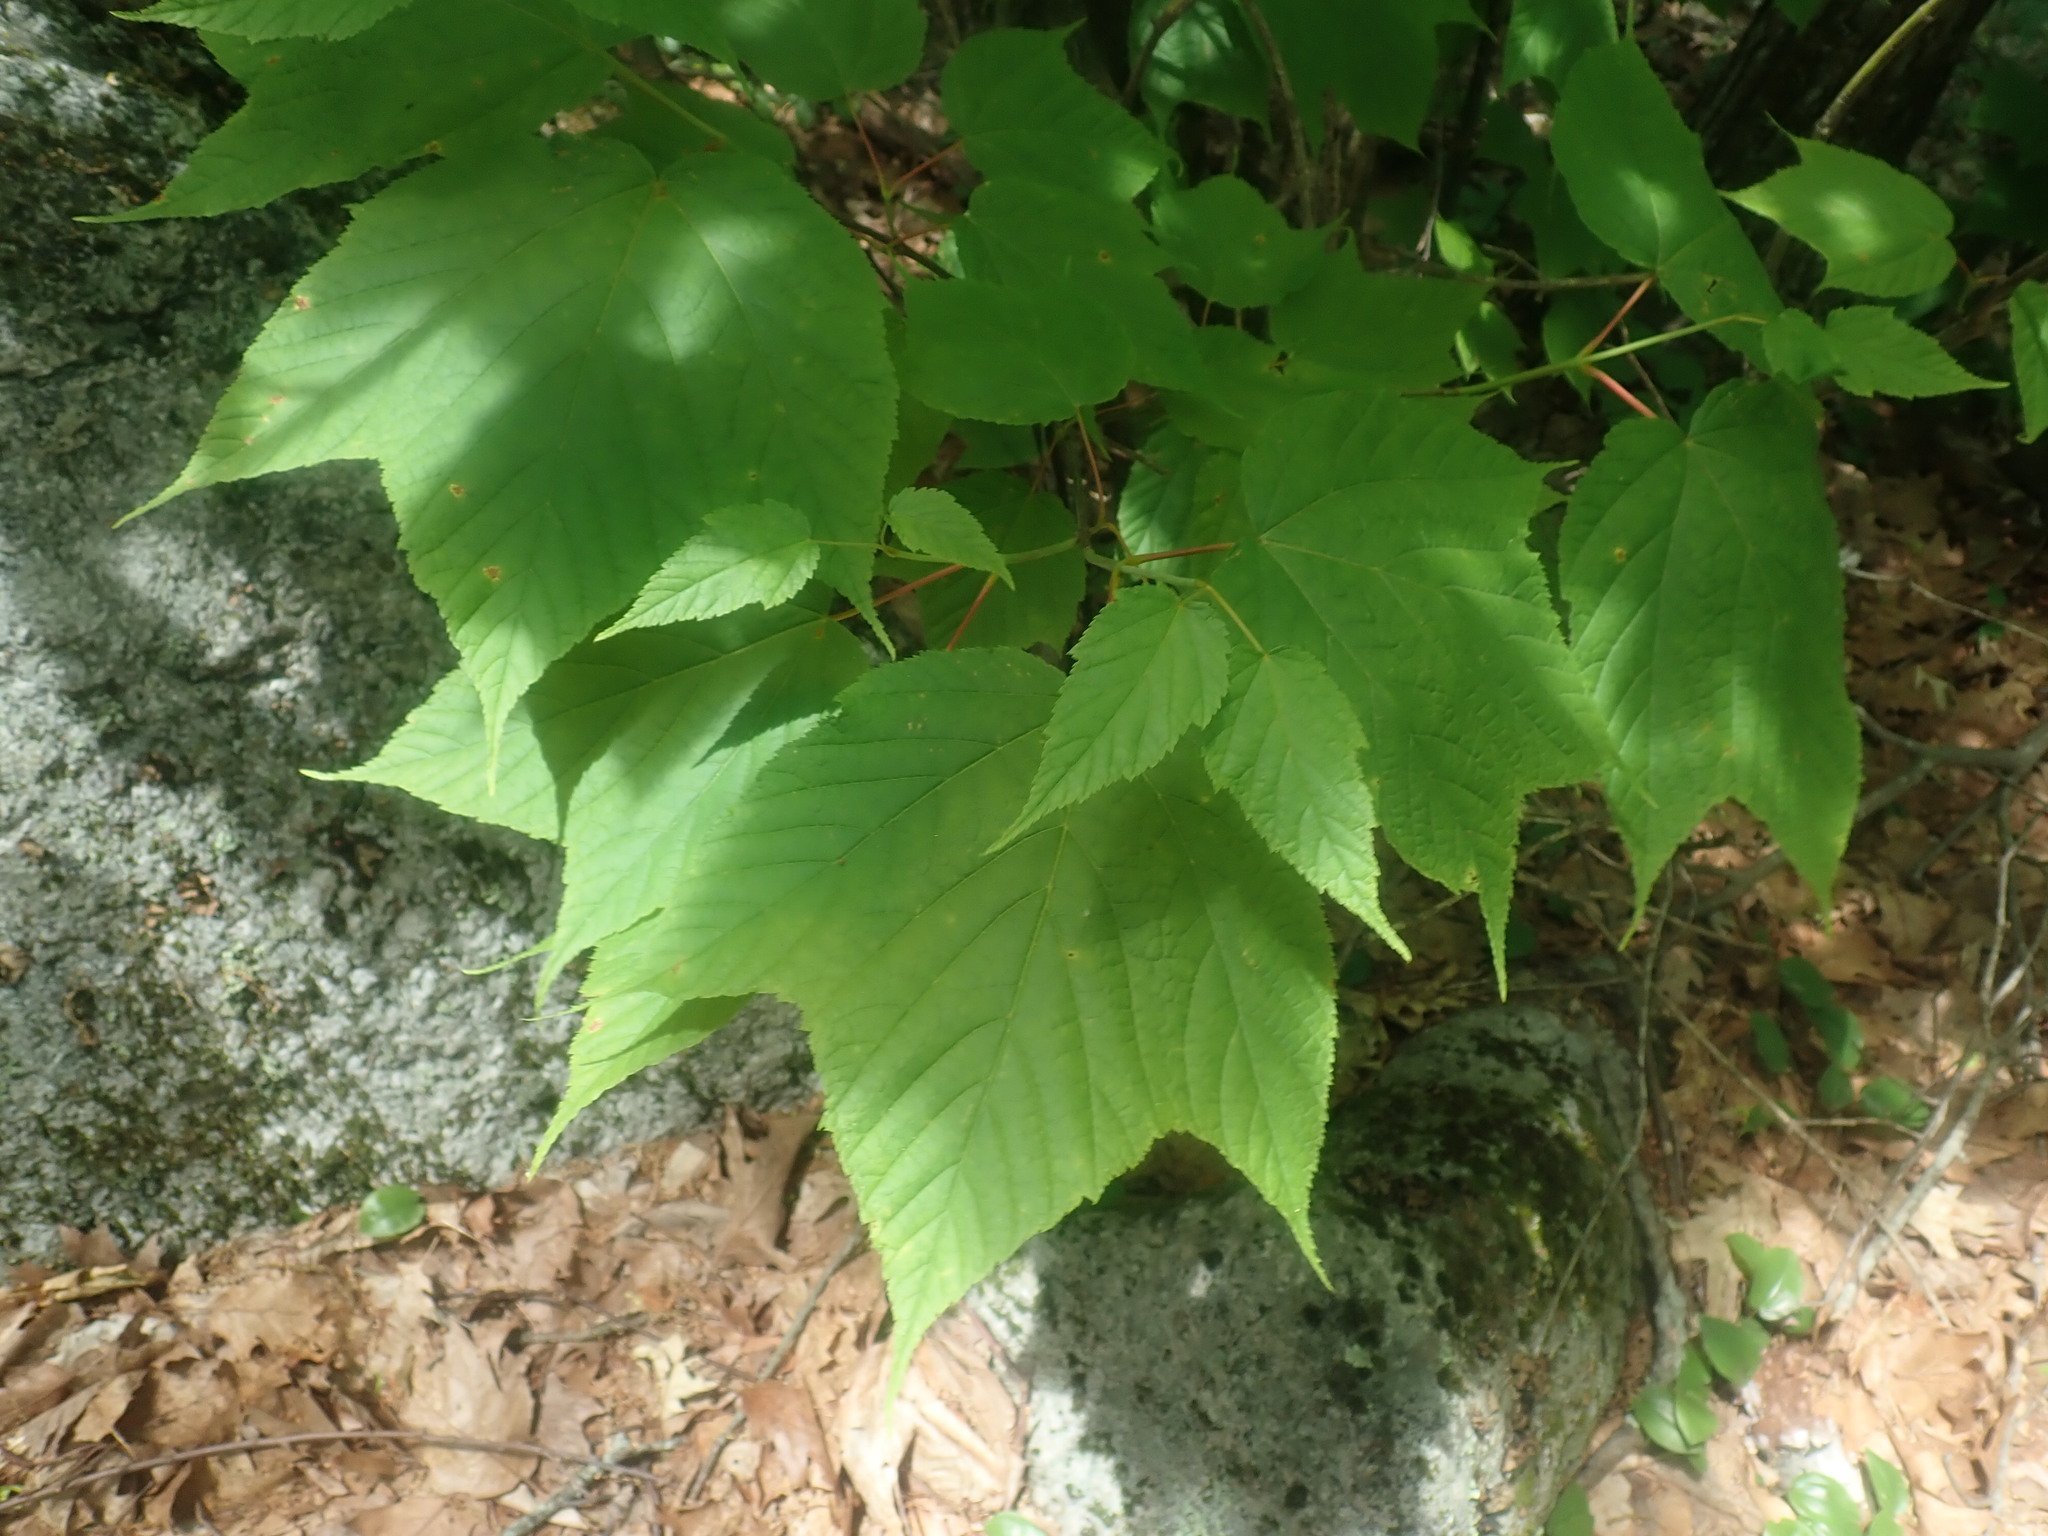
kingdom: Plantae
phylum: Tracheophyta
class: Magnoliopsida
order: Sapindales
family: Sapindaceae
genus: Acer
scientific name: Acer pensylvanicum
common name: Moosewood
